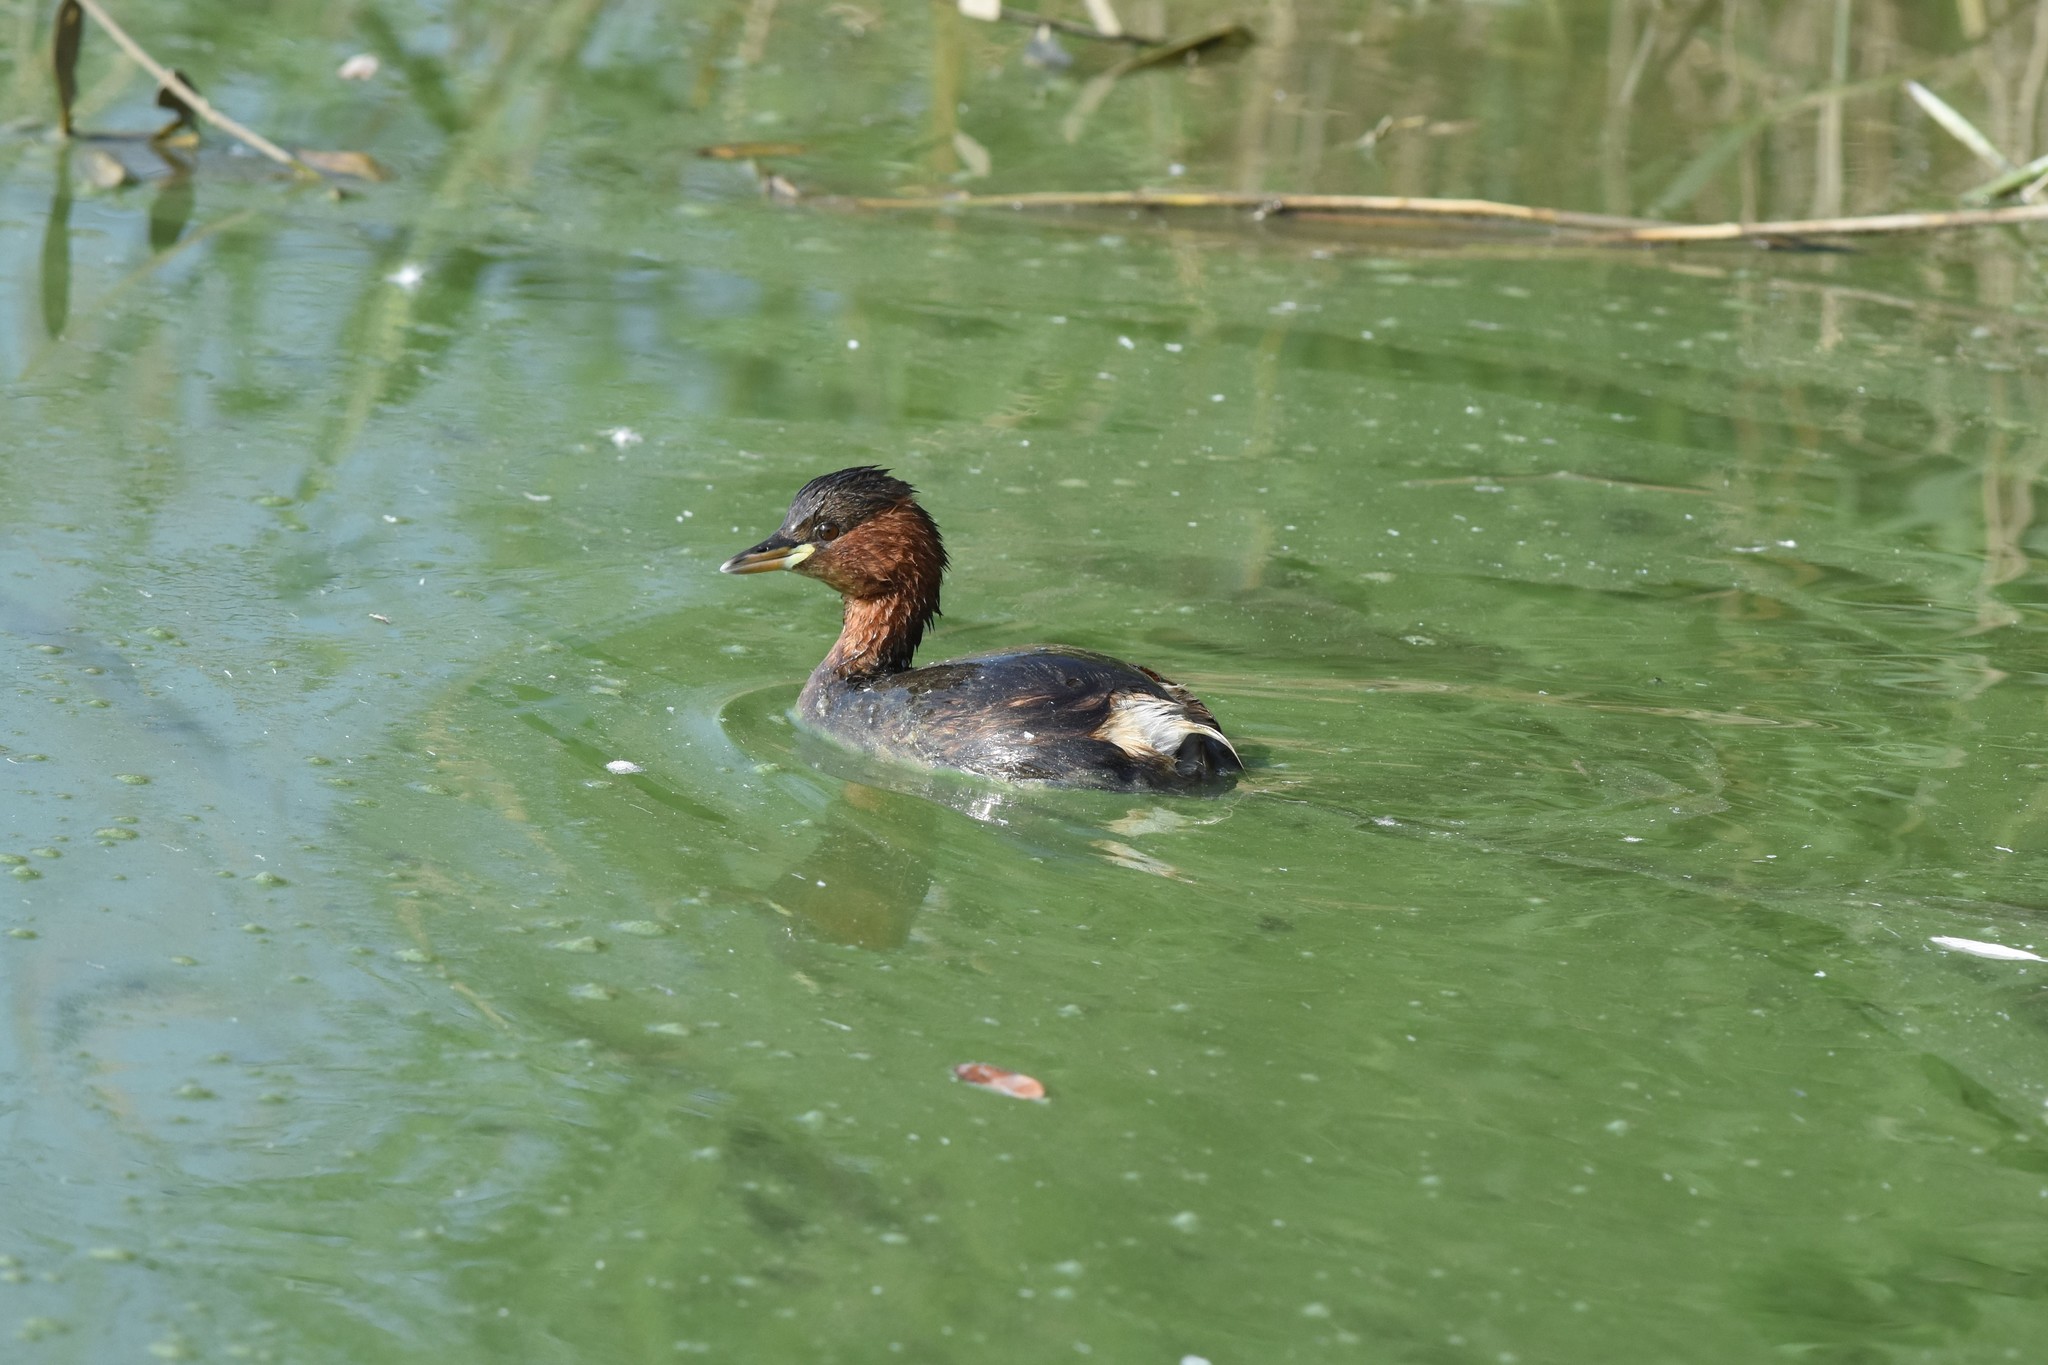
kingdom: Animalia
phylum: Chordata
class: Aves
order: Podicipediformes
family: Podicipedidae
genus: Tachybaptus
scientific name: Tachybaptus ruficollis
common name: Little grebe
